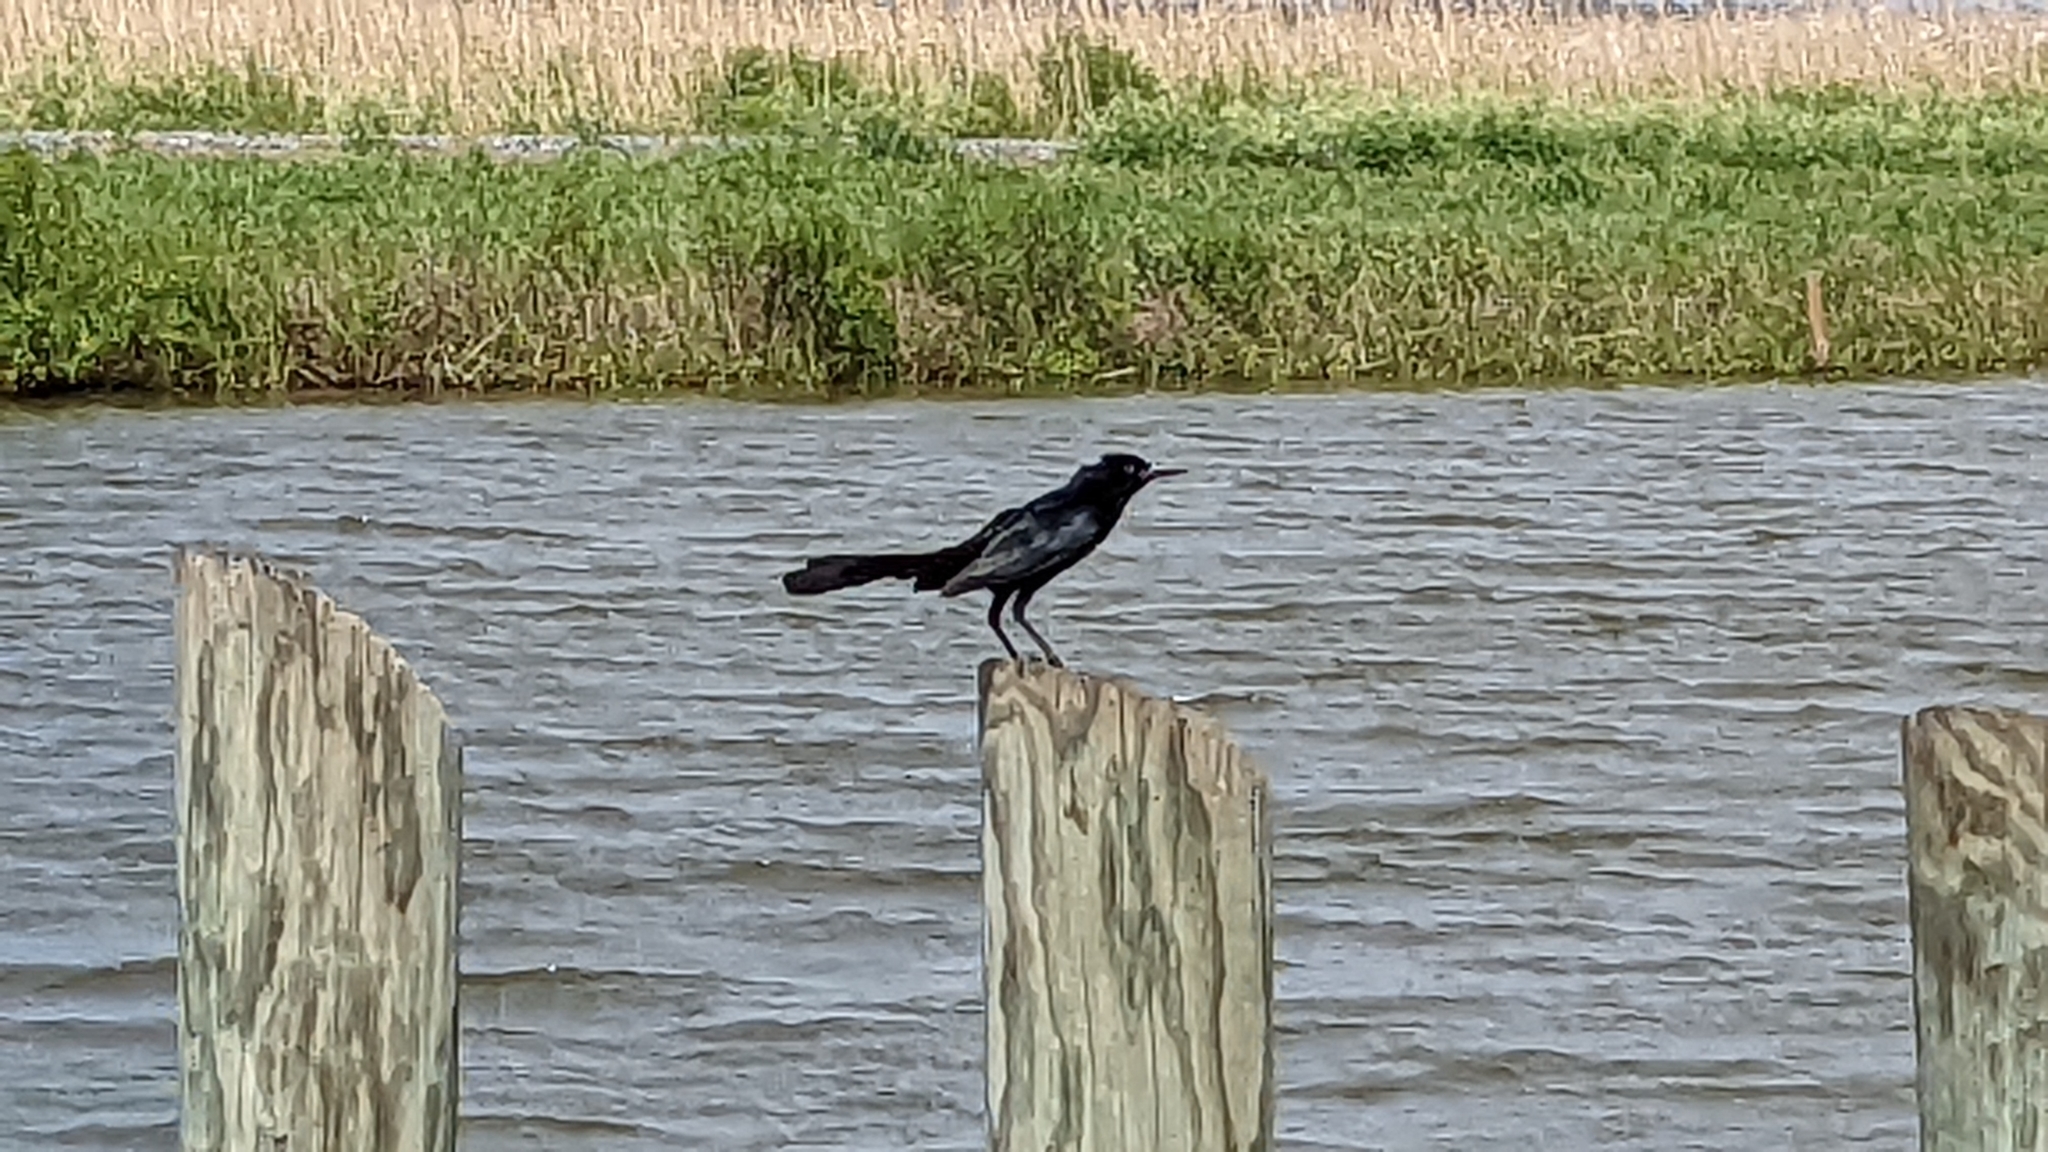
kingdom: Animalia
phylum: Chordata
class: Aves
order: Passeriformes
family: Icteridae
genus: Quiscalus
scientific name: Quiscalus major
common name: Boat-tailed grackle
